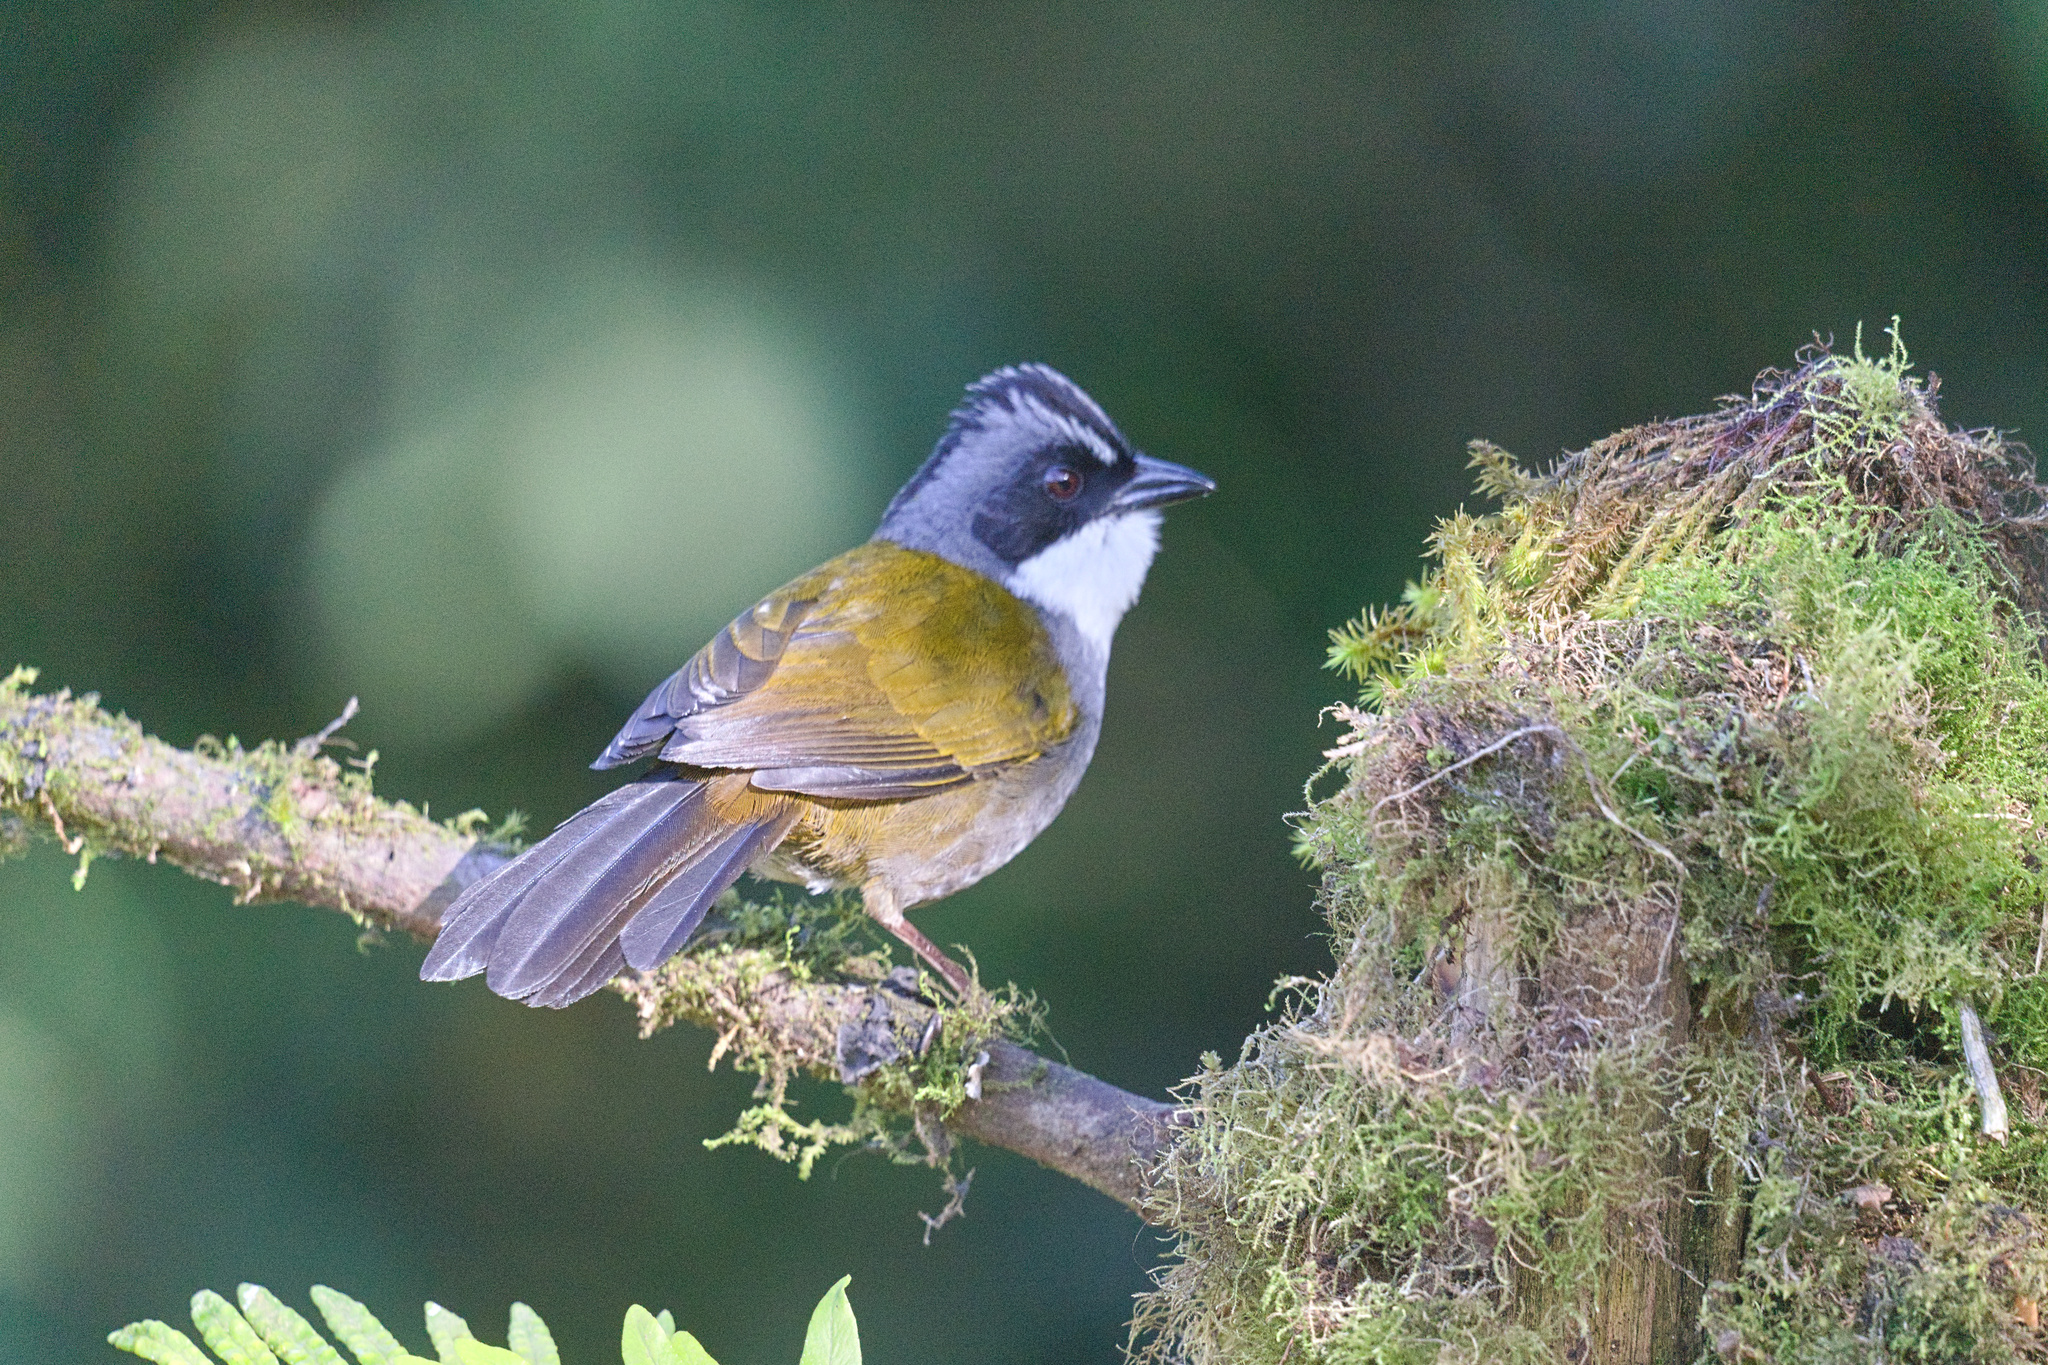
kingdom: Animalia
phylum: Chordata
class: Aves
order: Passeriformes
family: Passerellidae
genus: Arremon
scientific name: Arremon assimilis
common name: Grey-browed brushfinch
